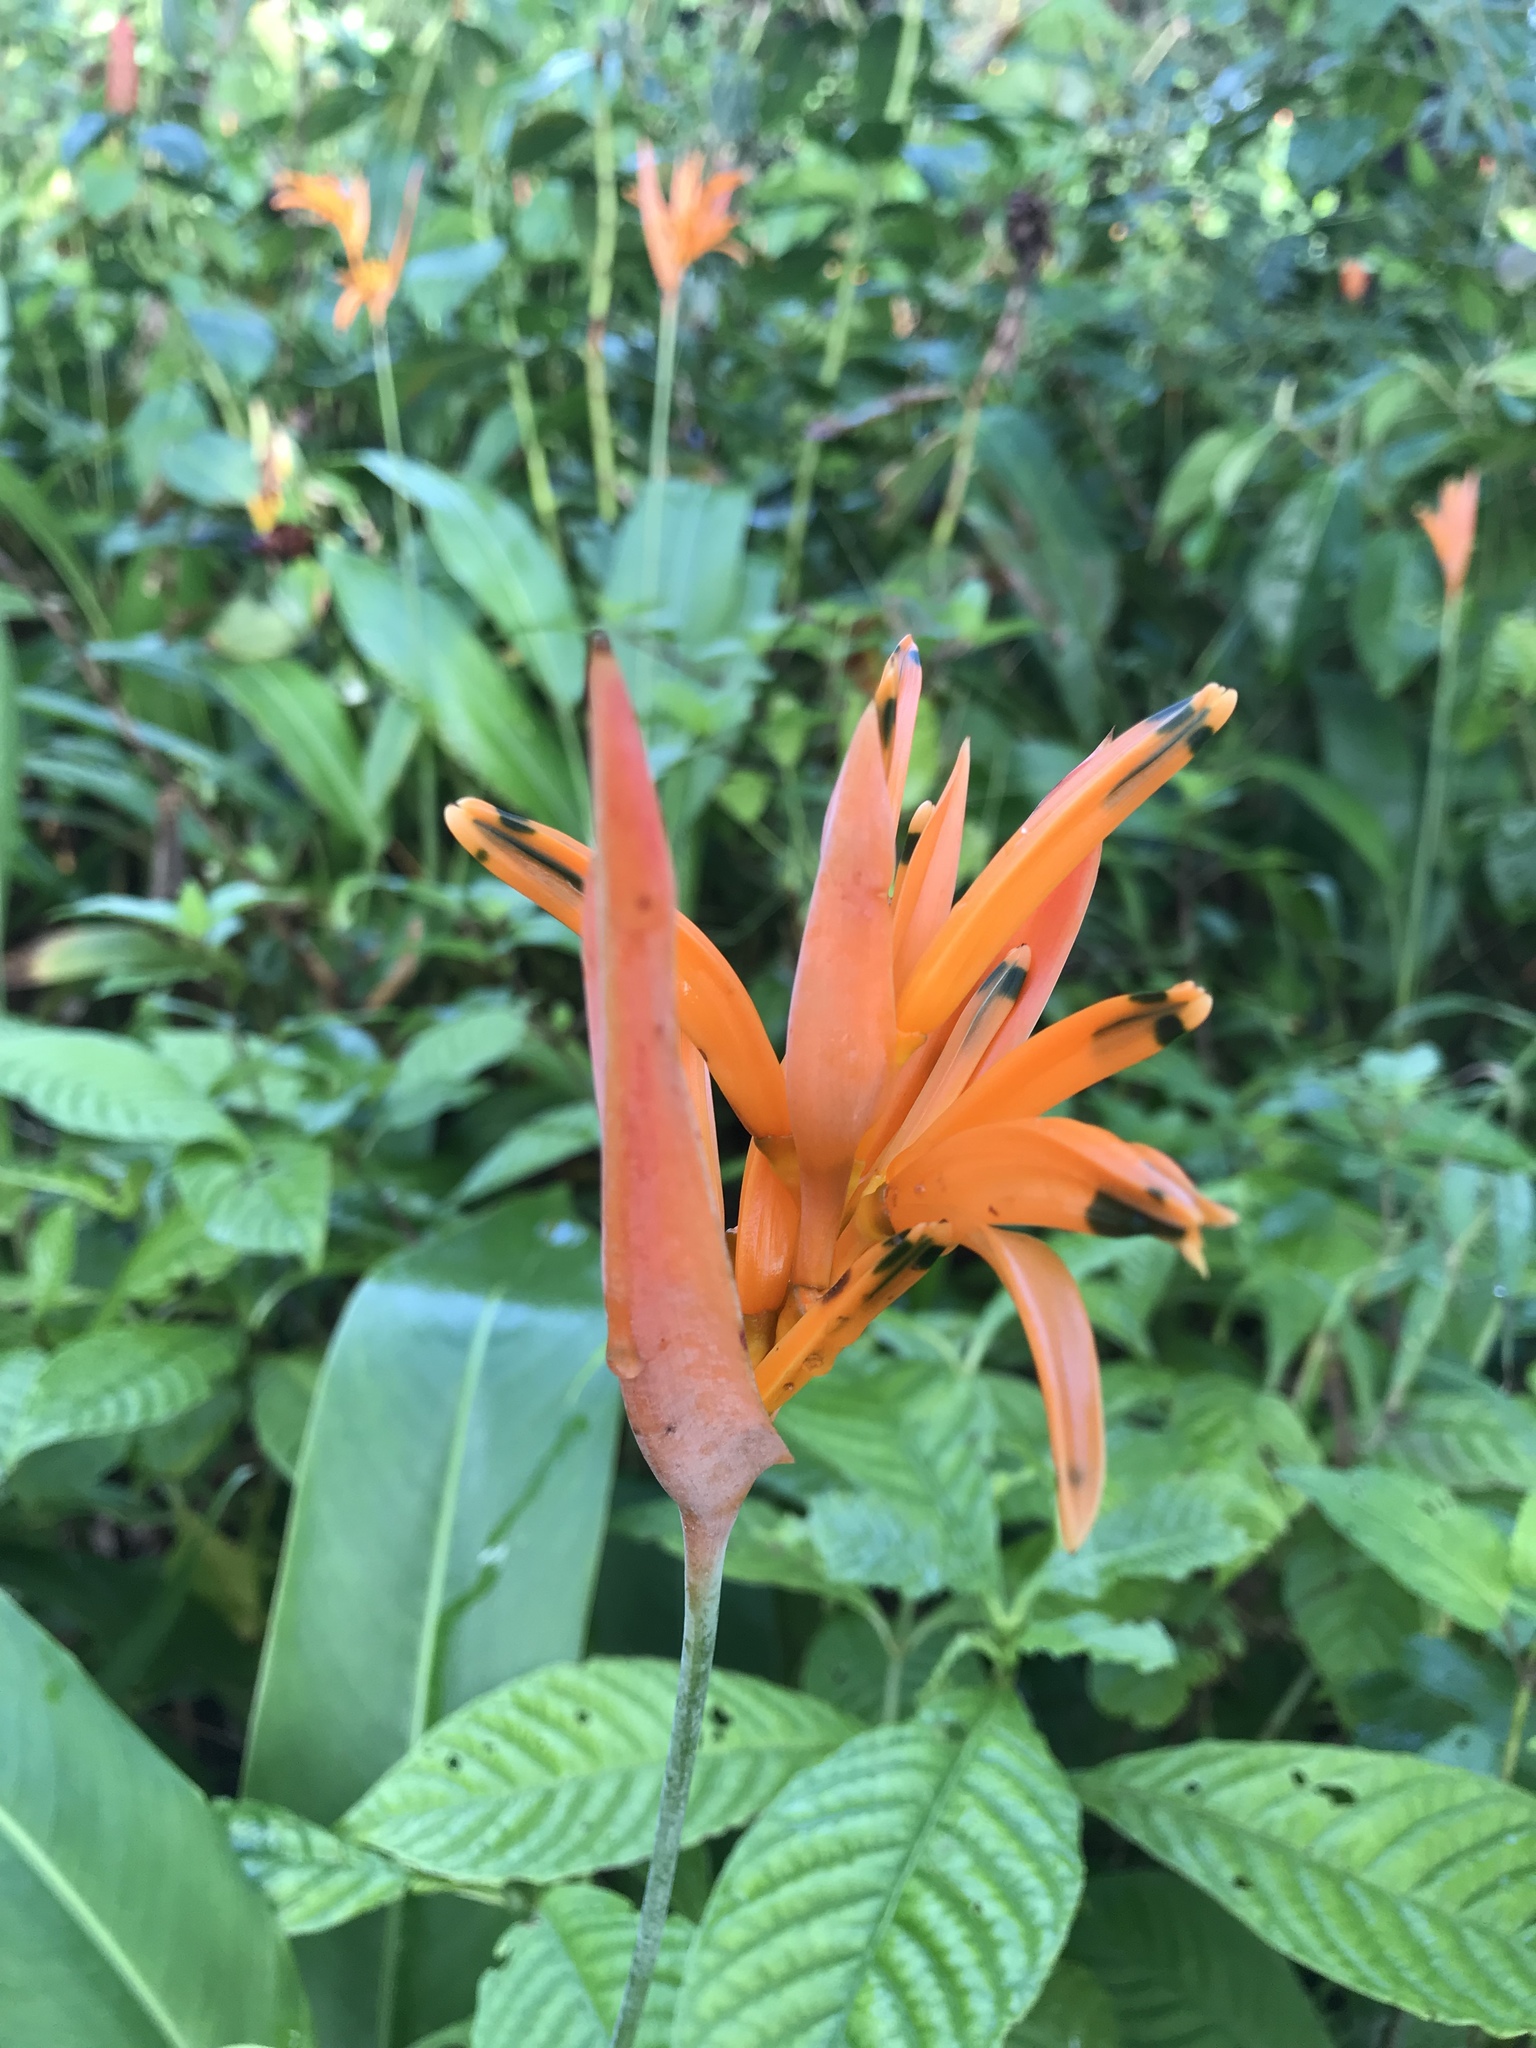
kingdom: Plantae
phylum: Tracheophyta
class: Liliopsida
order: Zingiberales
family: Heliconiaceae
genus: Heliconia
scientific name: Heliconia psittacorum
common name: Parrot's-flower
